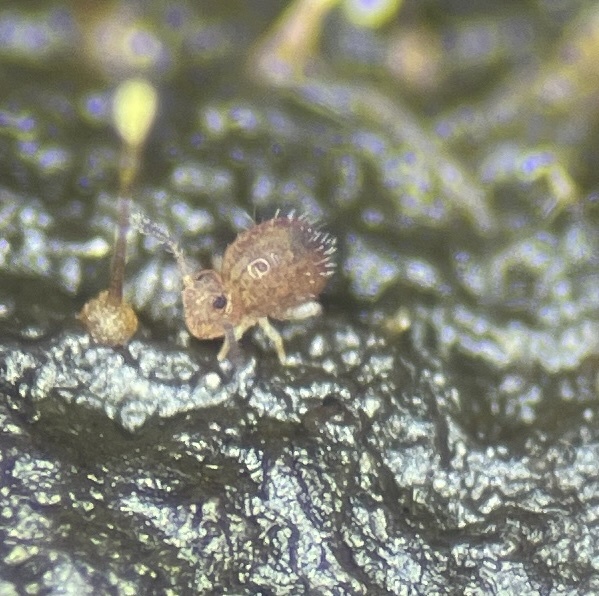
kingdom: Animalia
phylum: Arthropoda
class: Collembola
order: Symphypleona
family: Dicyrtomidae
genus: Ptenothrix
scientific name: Ptenothrix marmorata
